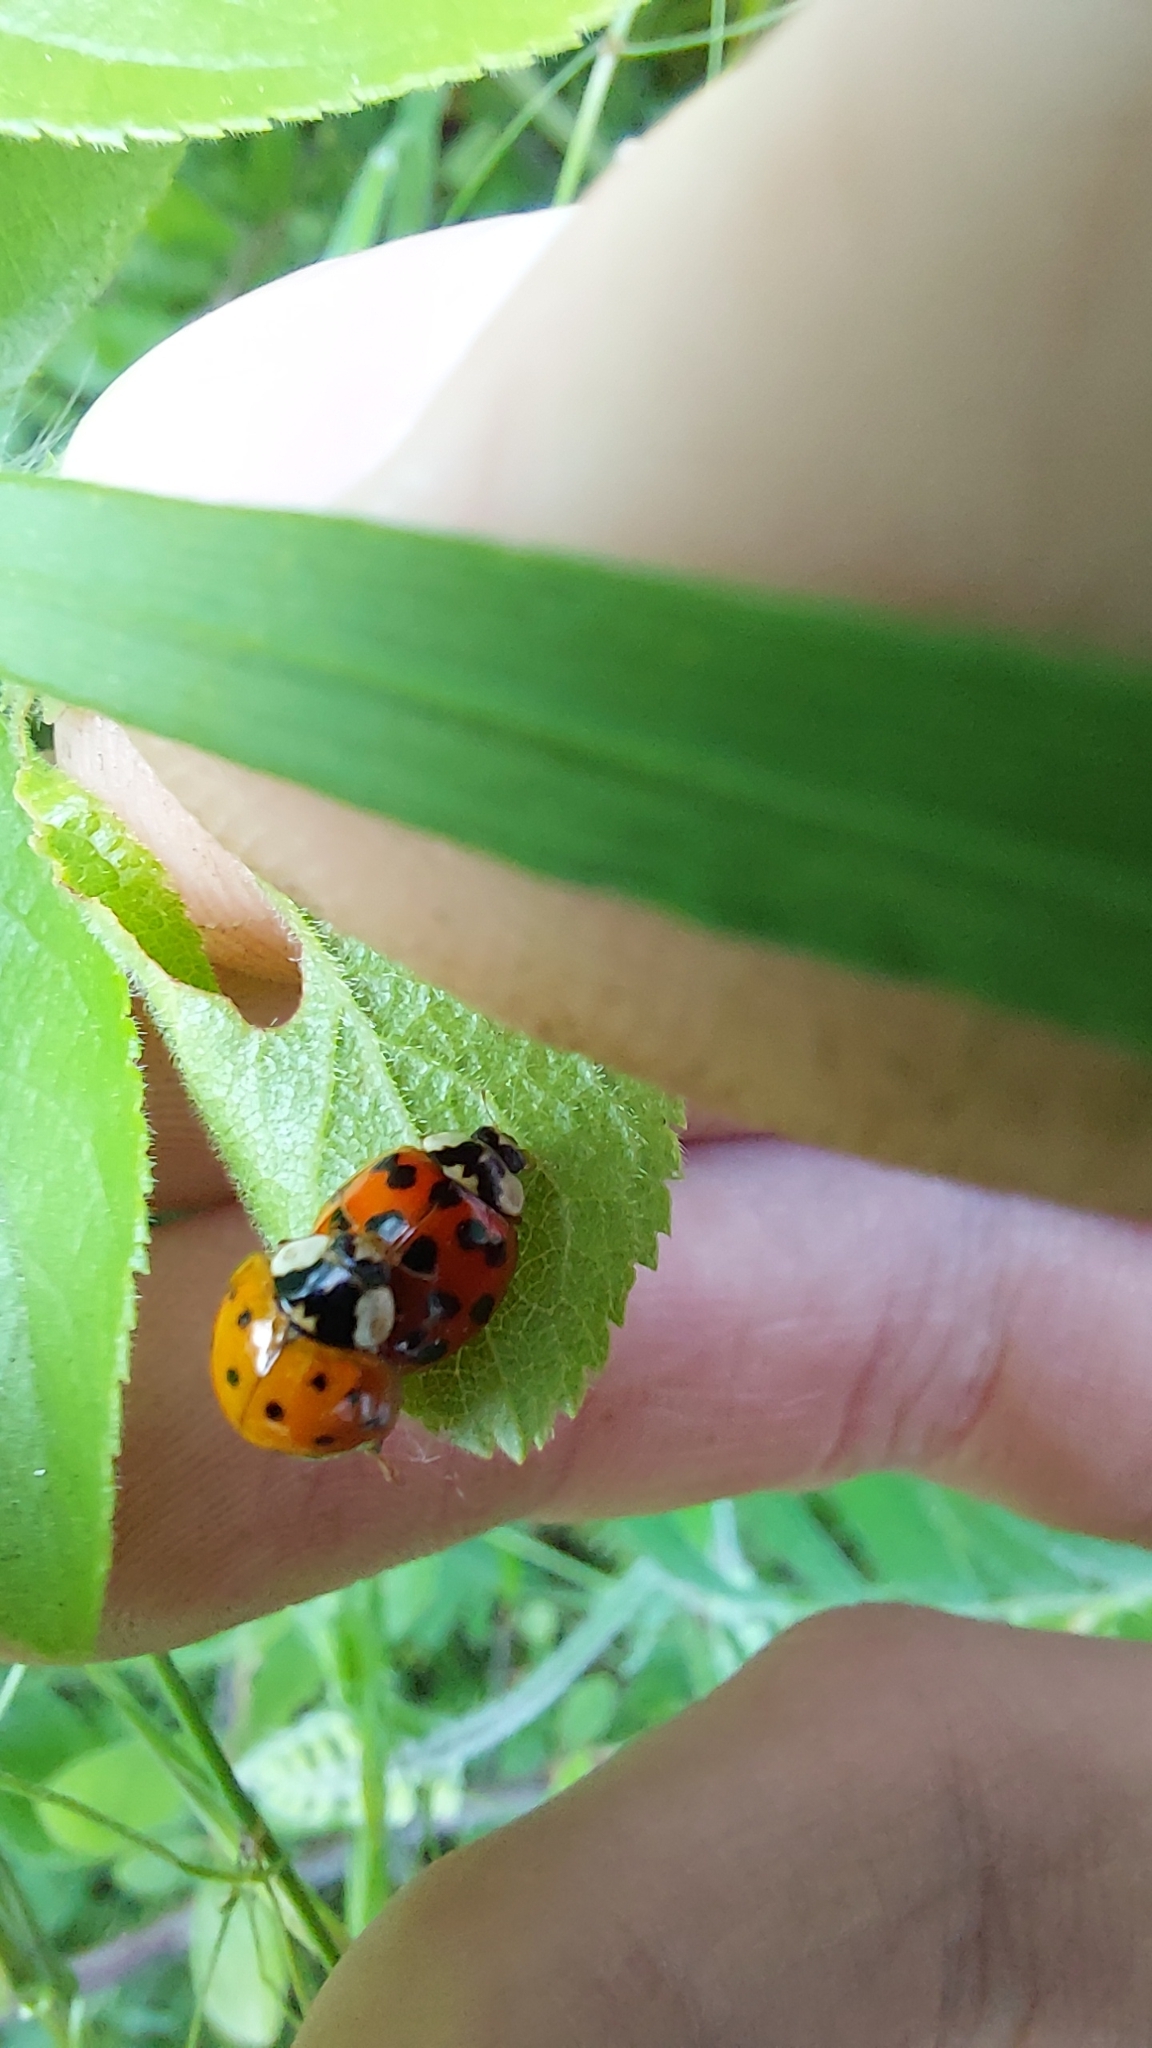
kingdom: Animalia
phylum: Arthropoda
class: Insecta
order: Coleoptera
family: Coccinellidae
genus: Harmonia
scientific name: Harmonia axyridis
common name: Harlequin ladybird
